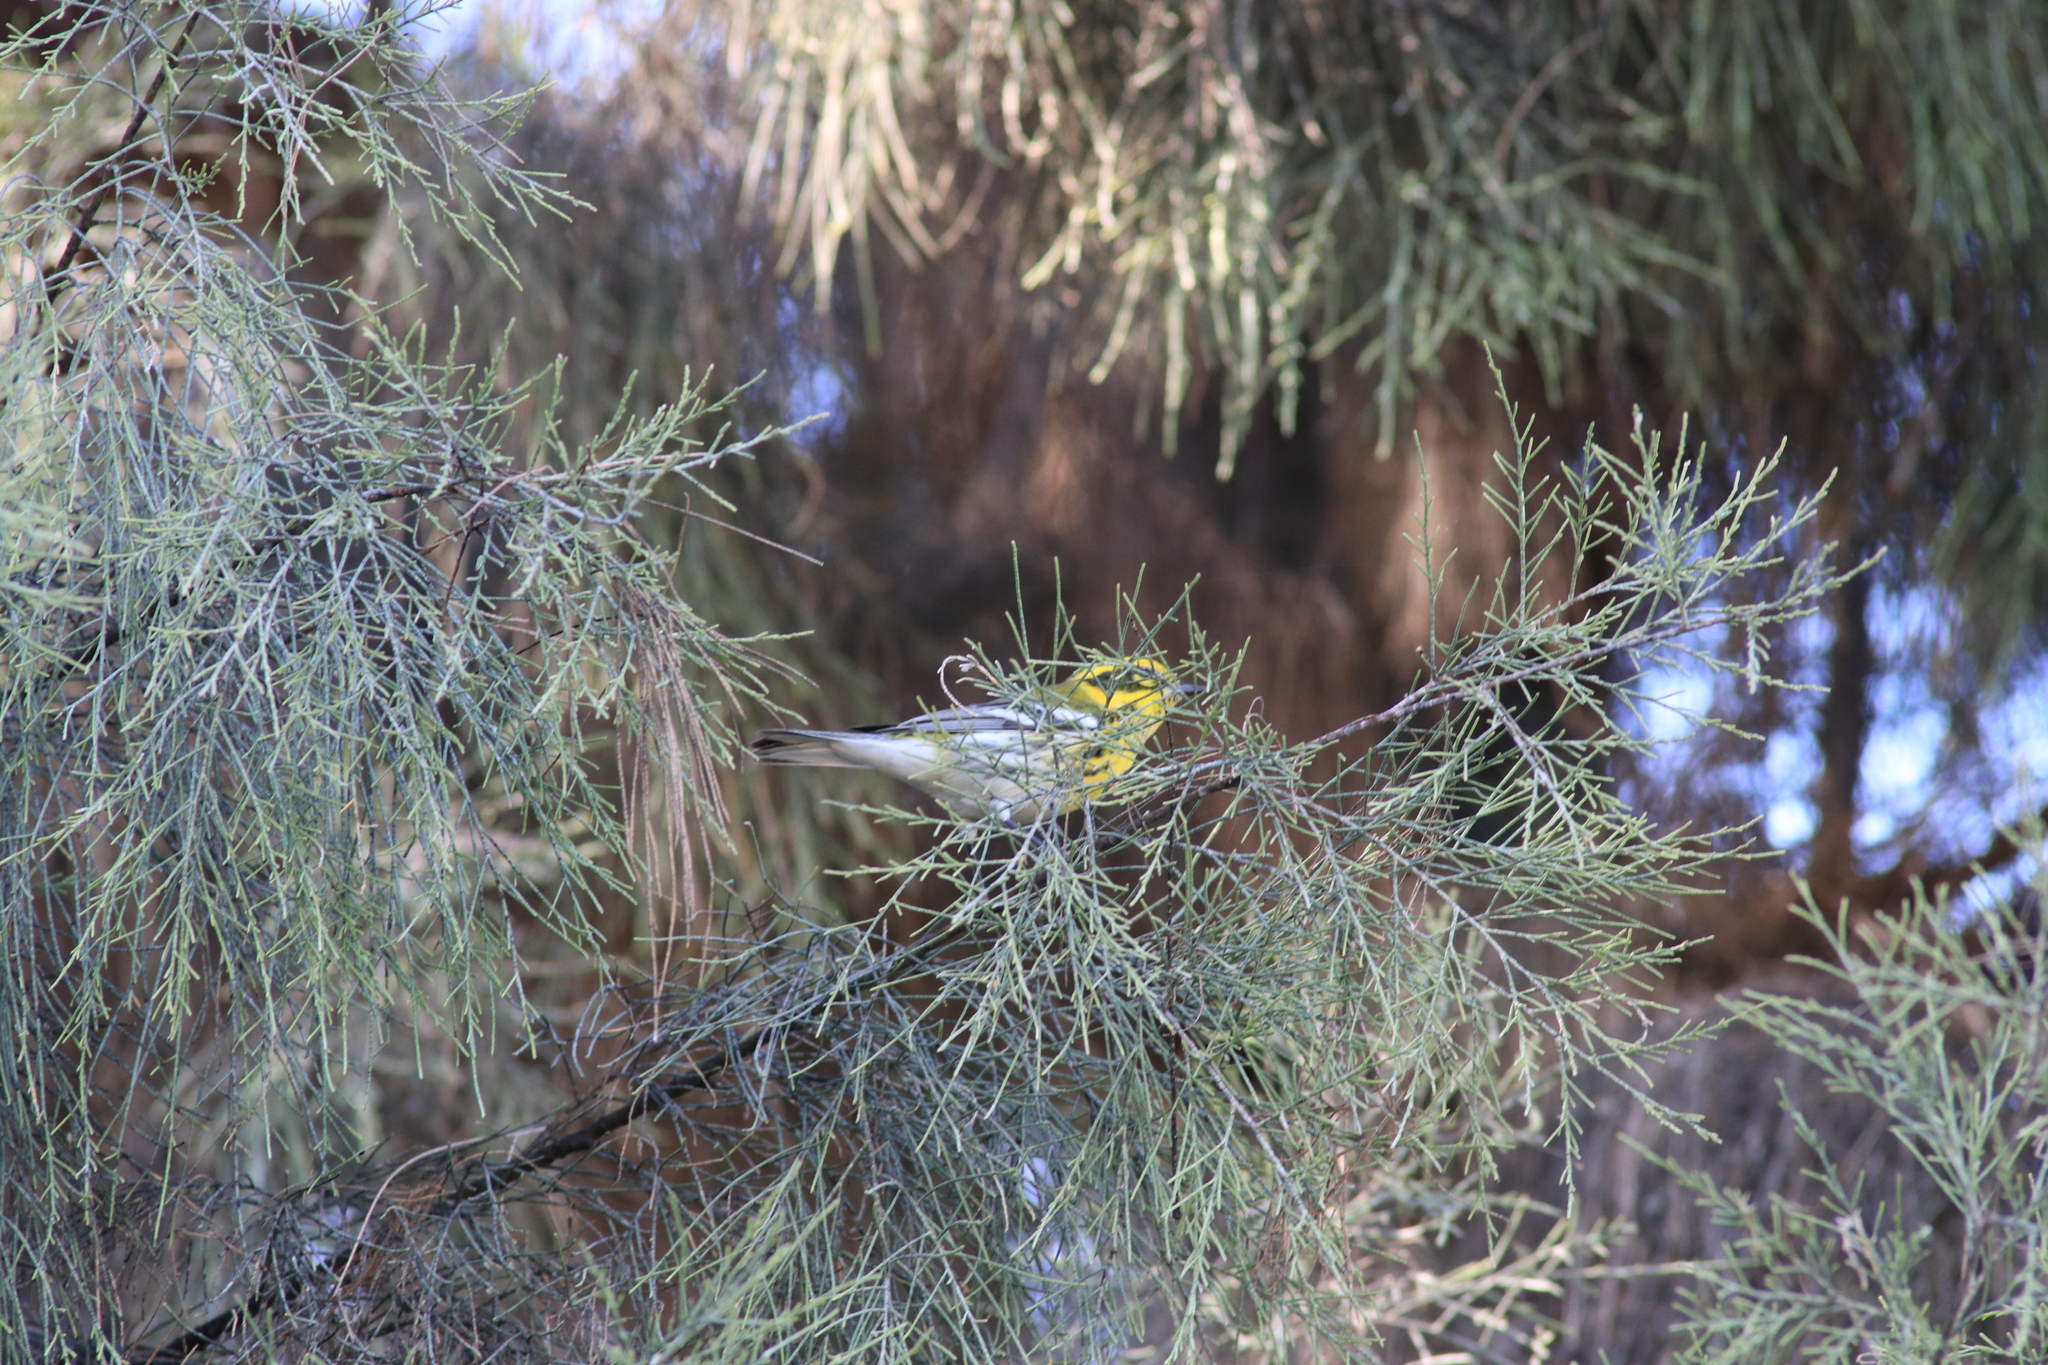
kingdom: Animalia
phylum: Chordata
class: Aves
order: Passeriformes
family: Parulidae
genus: Setophaga
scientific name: Setophaga townsendi
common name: Townsend's warbler
